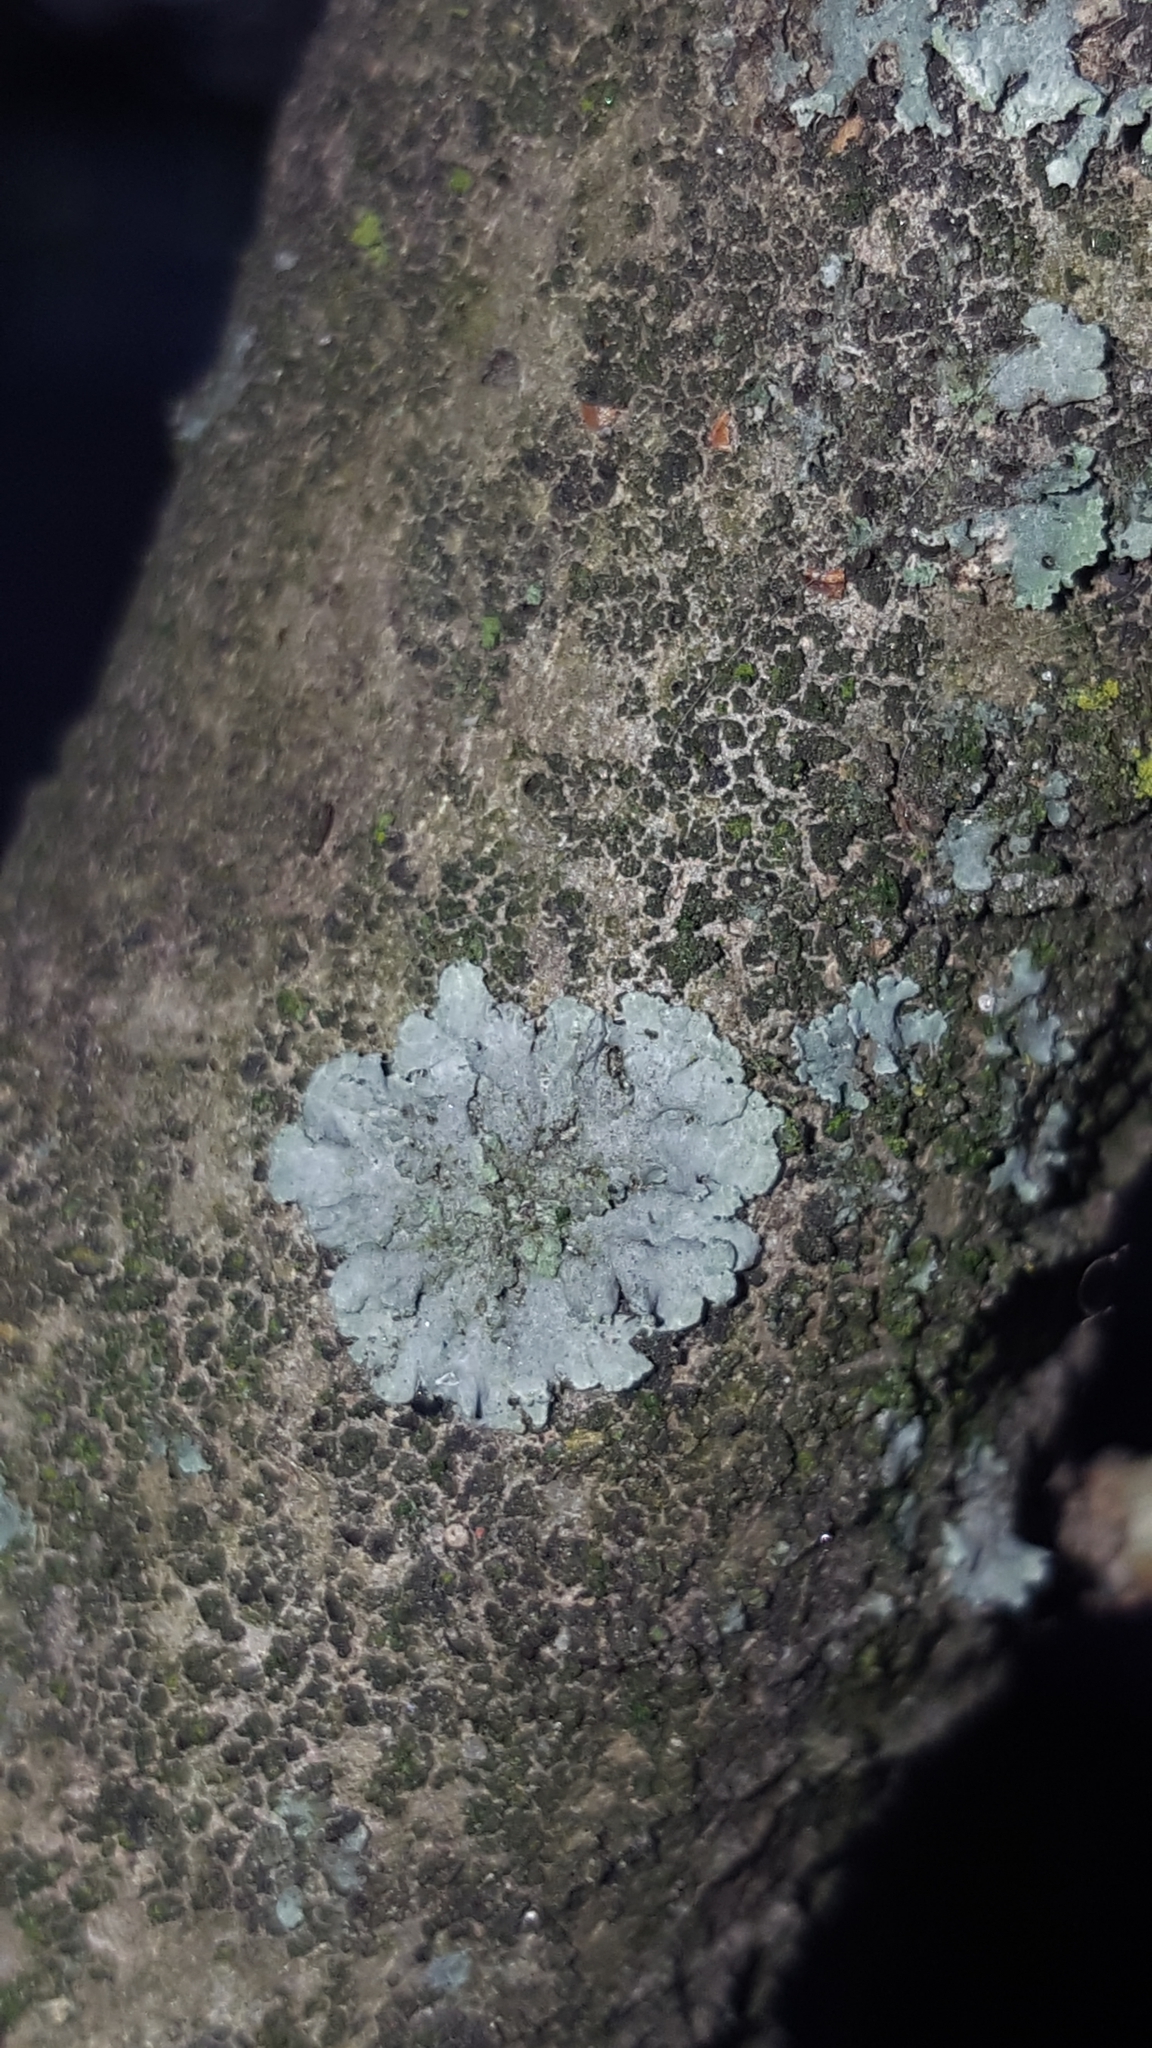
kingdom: Fungi
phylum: Ascomycota
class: Lecanoromycetes
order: Caliciales
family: Physciaceae
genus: Phaeophyscia
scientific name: Phaeophyscia orbicularis
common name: Mealy shadow lichen
